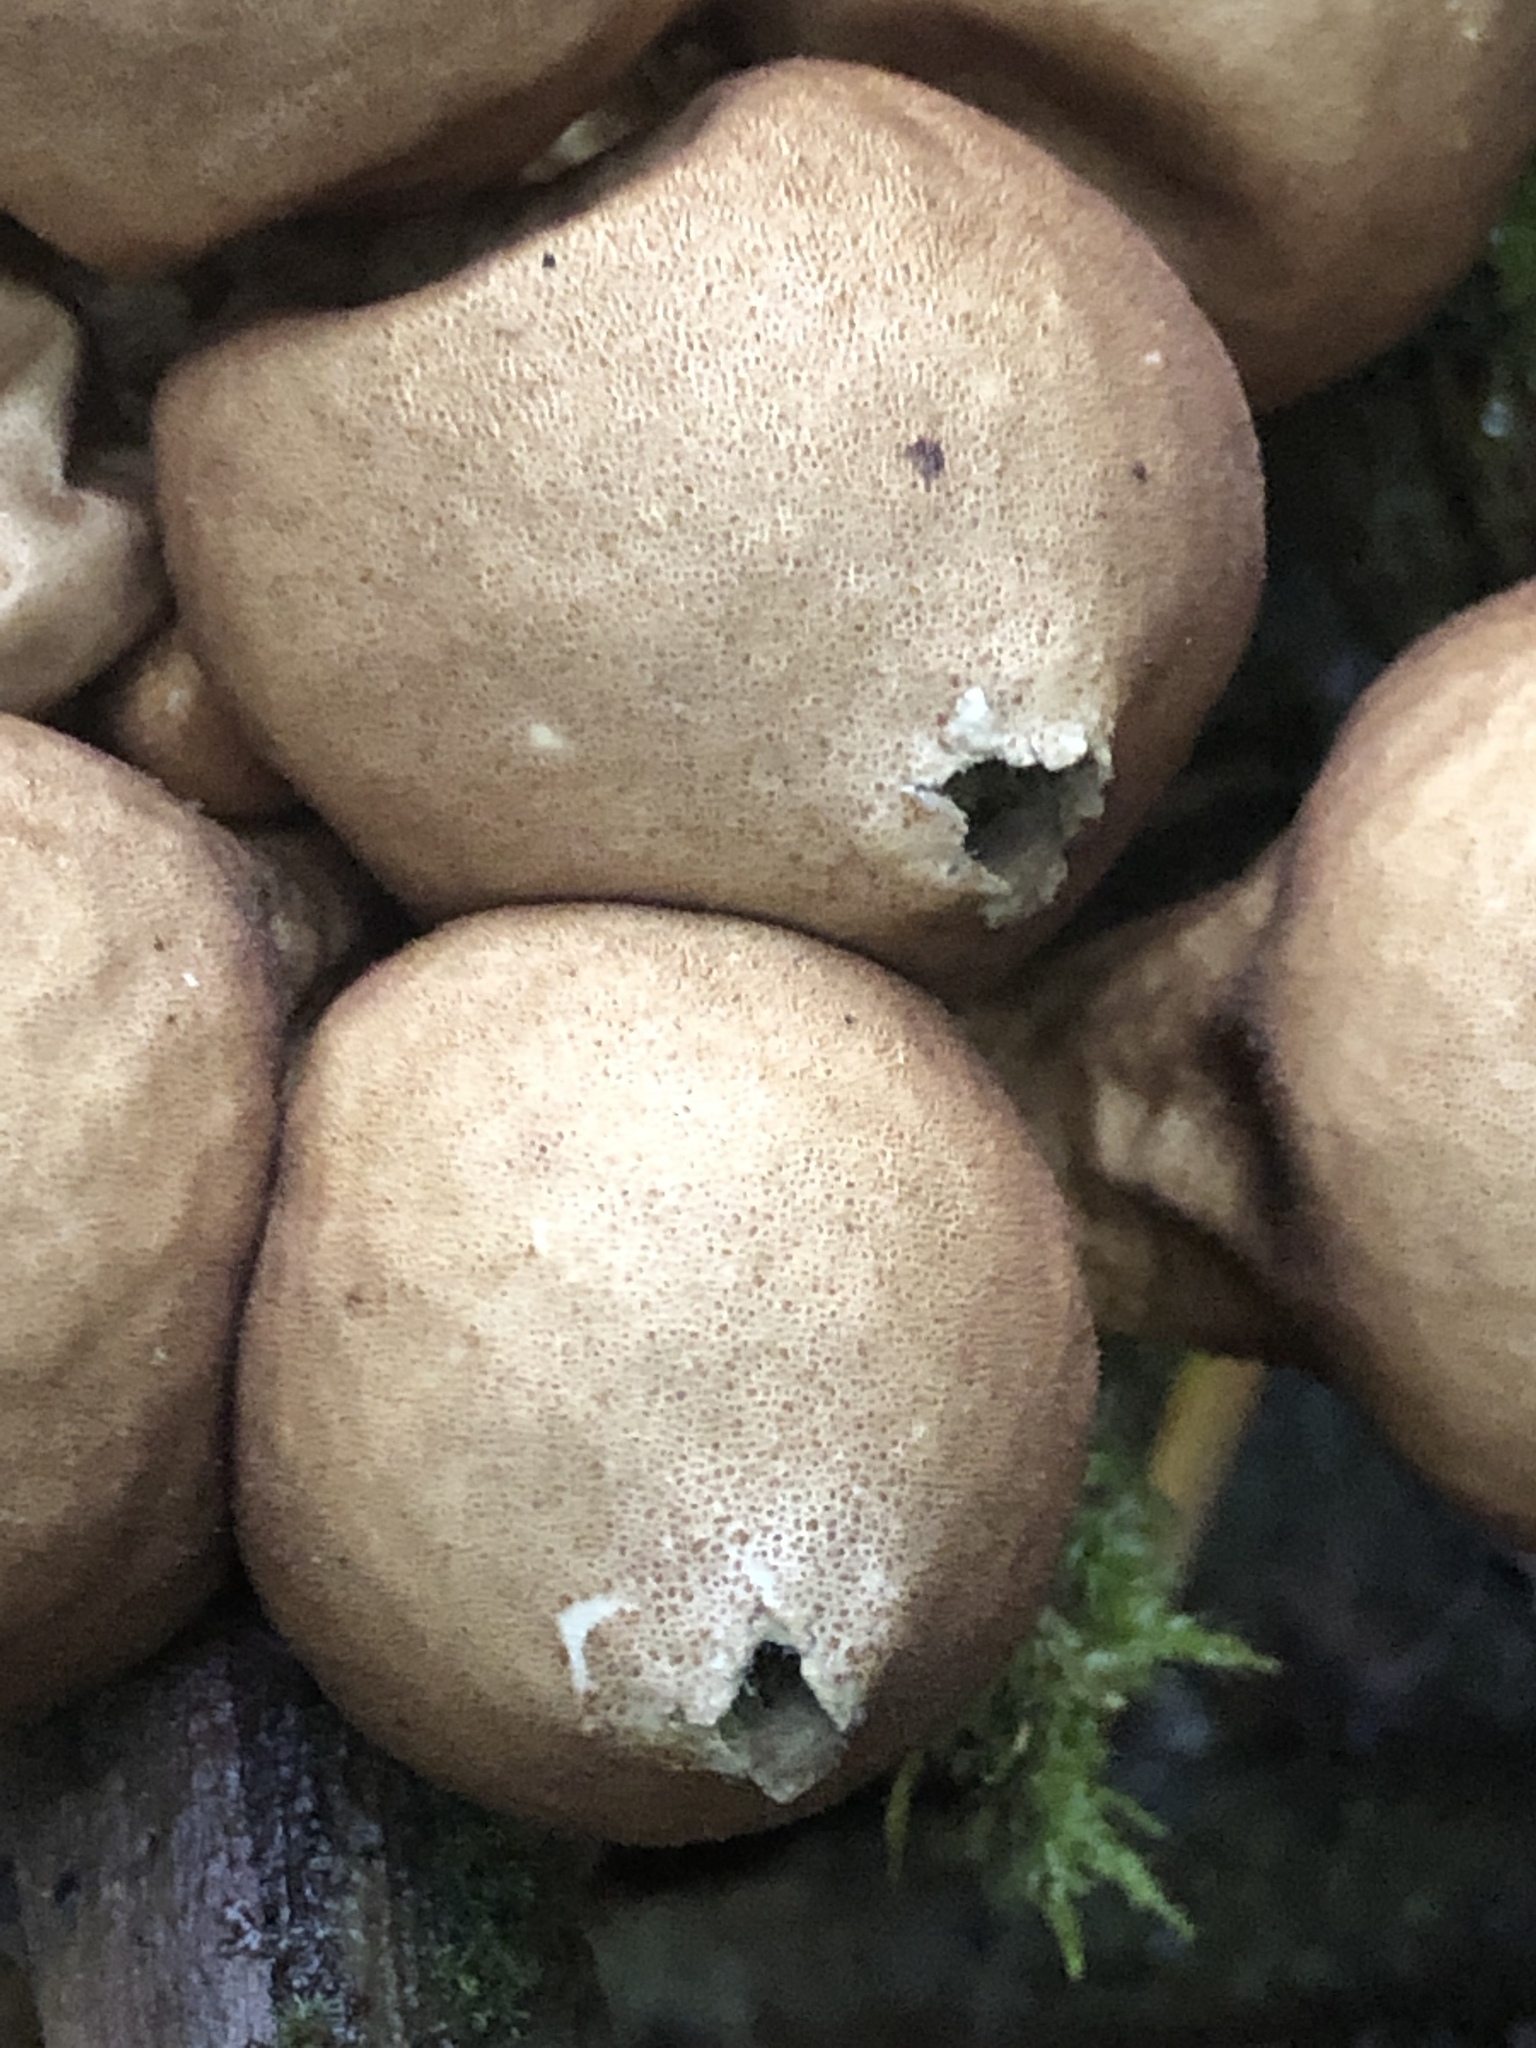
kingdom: Fungi
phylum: Basidiomycota
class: Agaricomycetes
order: Agaricales
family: Lycoperdaceae
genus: Apioperdon
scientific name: Apioperdon pyriforme
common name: Pear-shaped puffball
